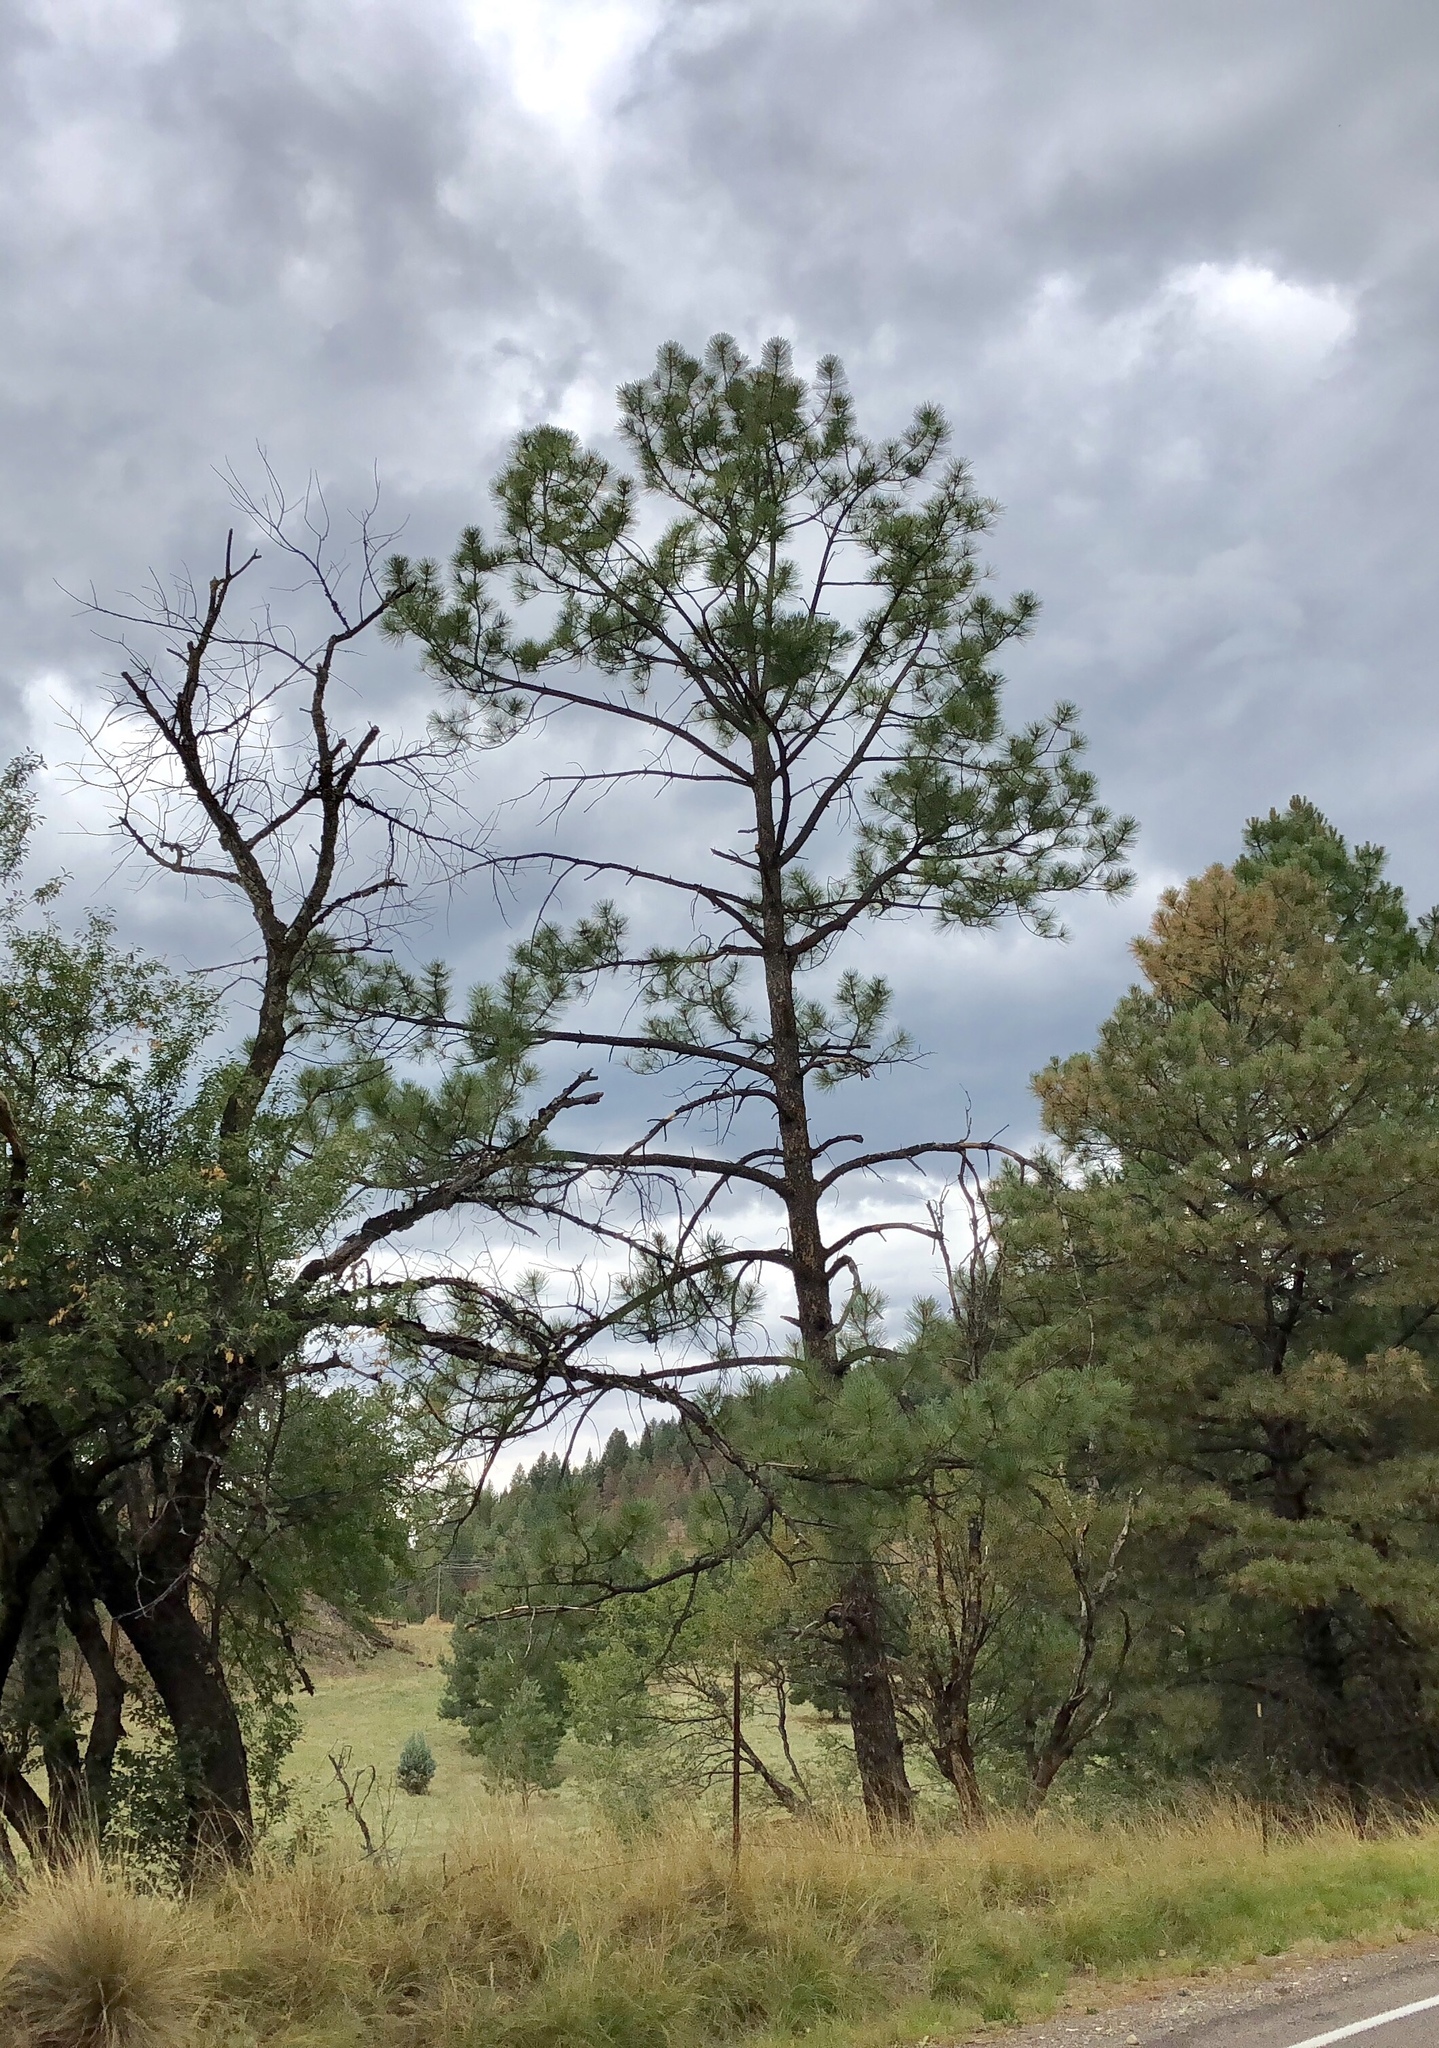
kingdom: Plantae
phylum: Tracheophyta
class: Pinopsida
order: Pinales
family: Pinaceae
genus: Pinus
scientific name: Pinus ponderosa
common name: Western yellow-pine
